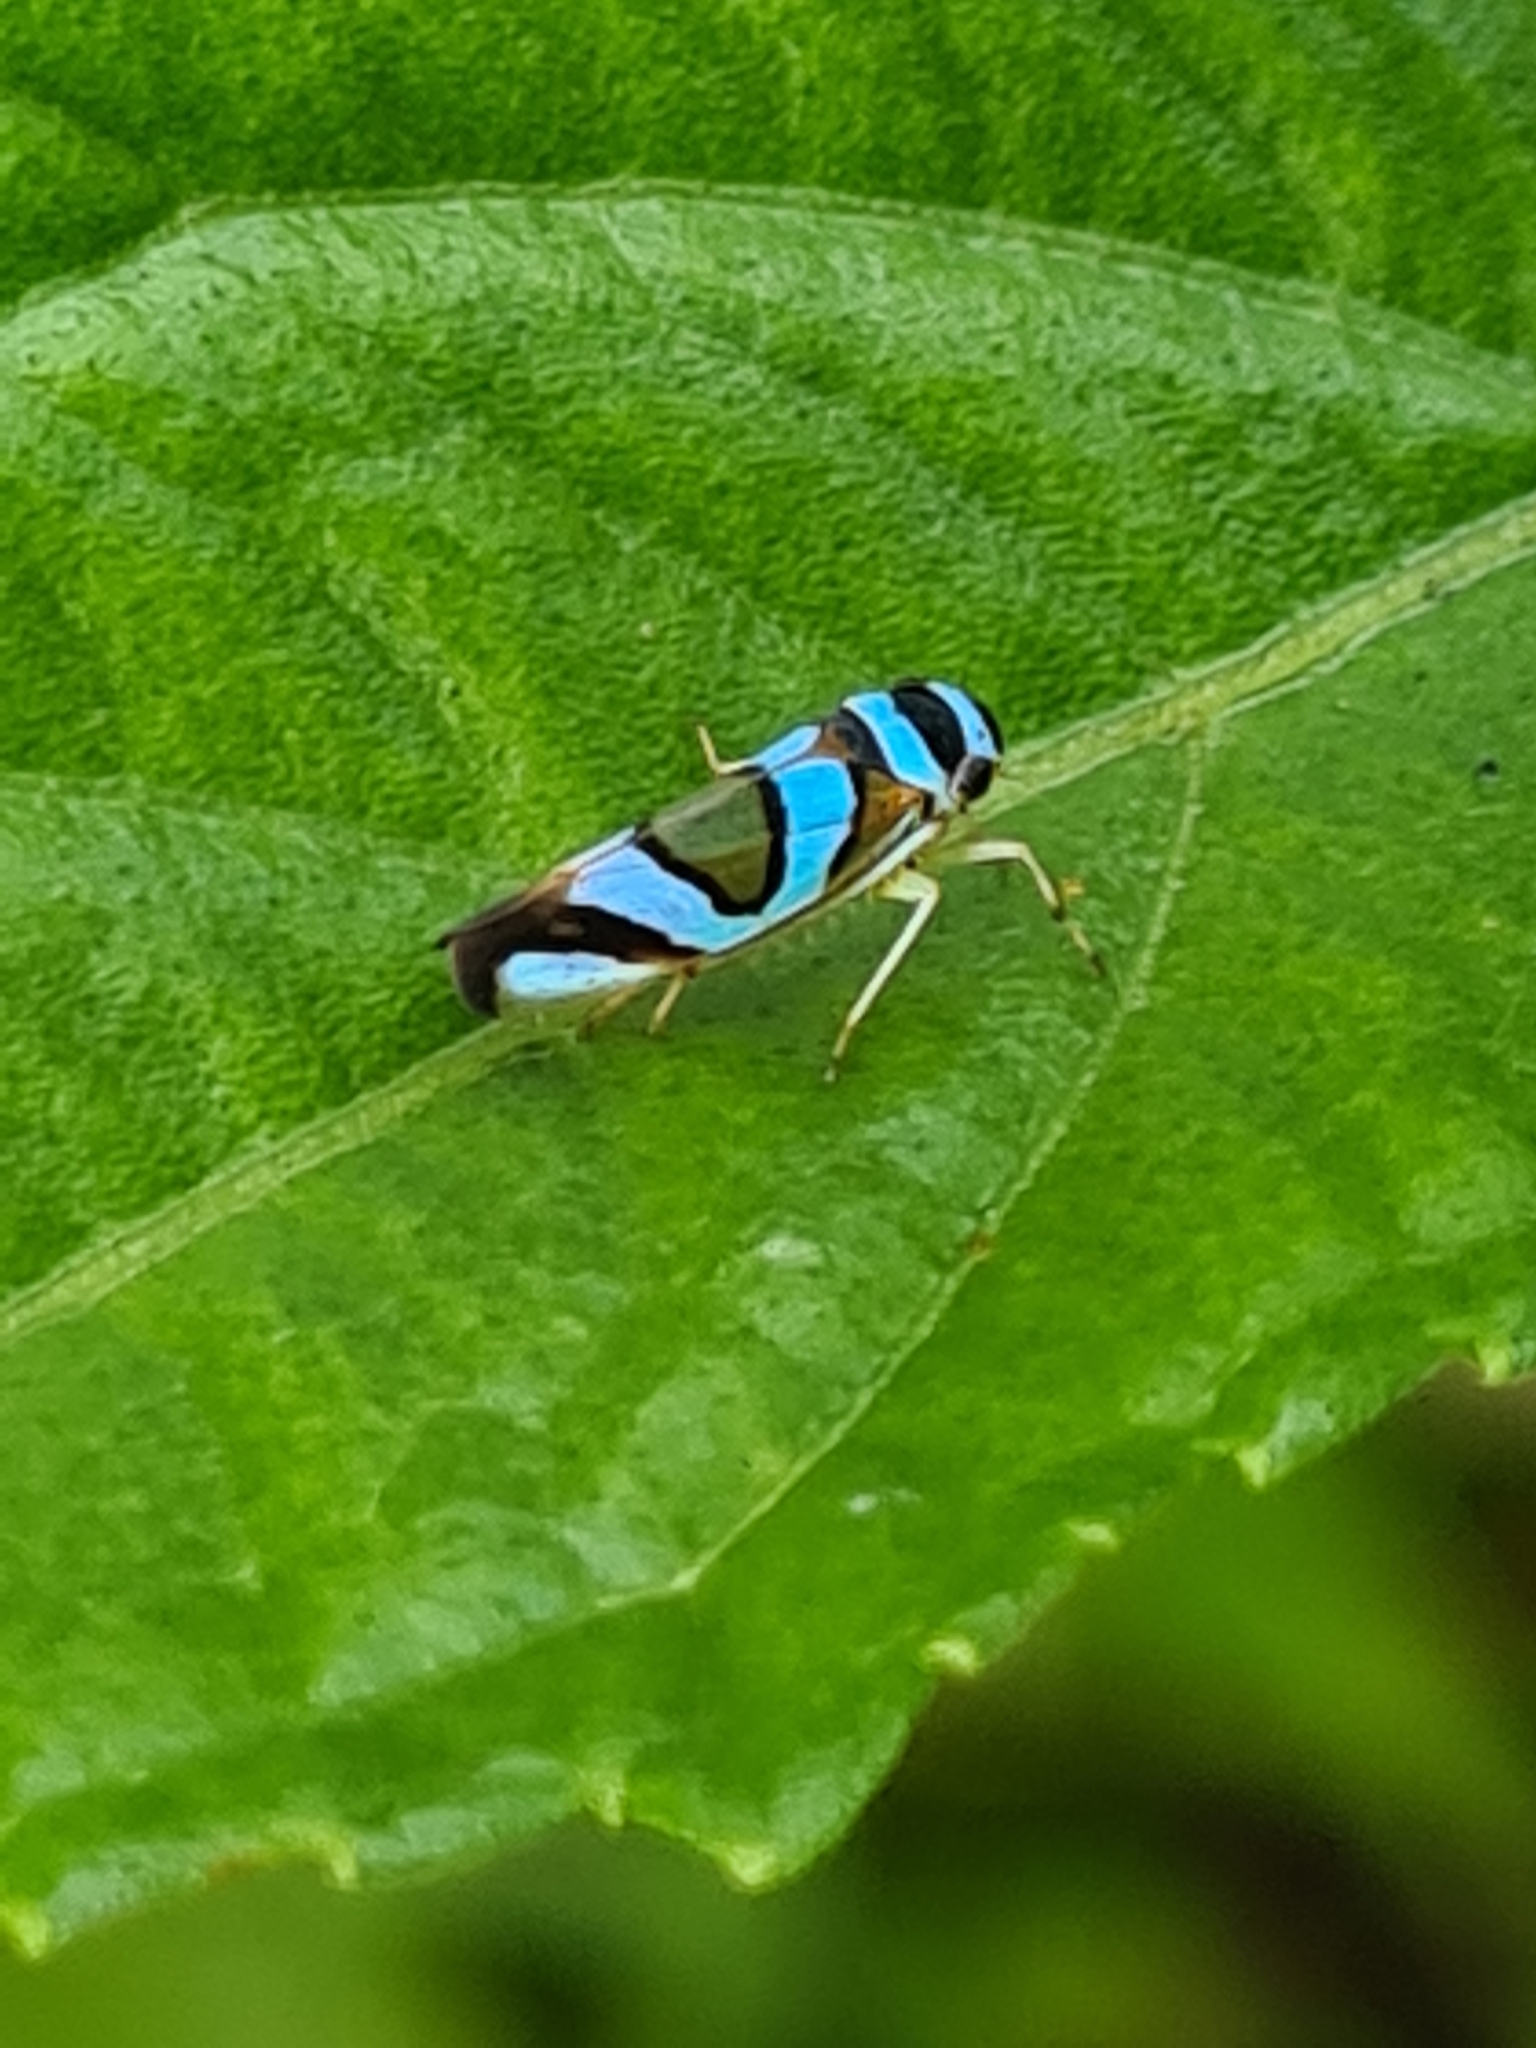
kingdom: Animalia
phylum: Arthropoda
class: Insecta
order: Hemiptera
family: Cicadellidae
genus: Macugonalia
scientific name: Macugonalia moesta
